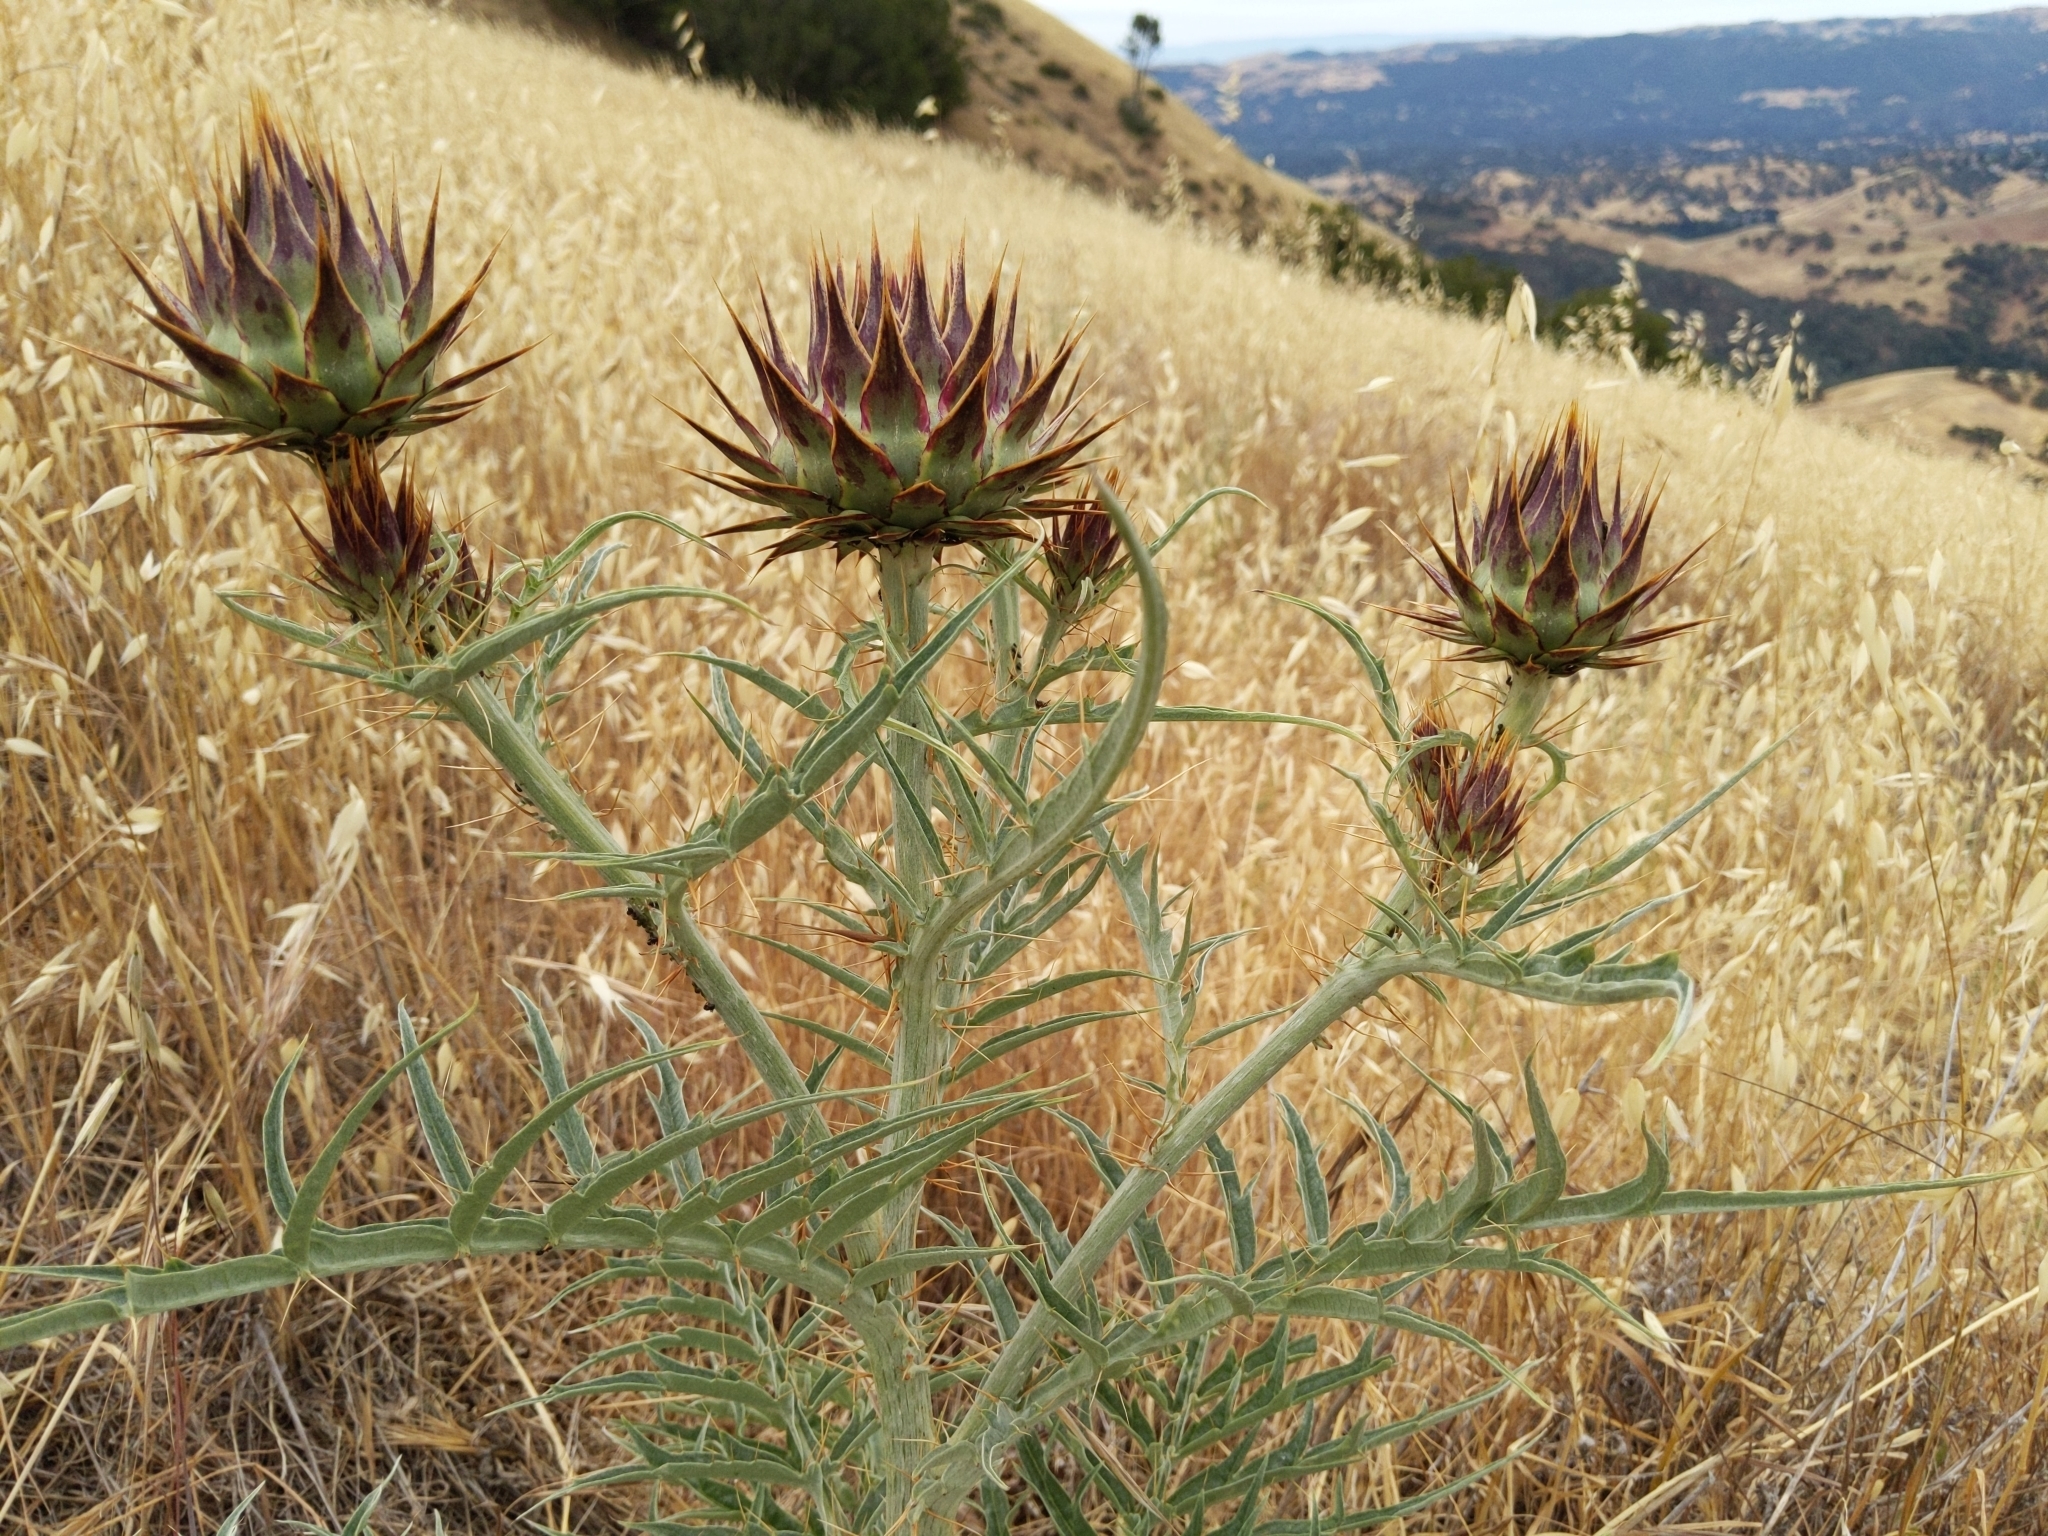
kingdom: Plantae
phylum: Tracheophyta
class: Magnoliopsida
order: Asterales
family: Asteraceae
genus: Cynara
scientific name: Cynara cardunculus
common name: Globe artichoke
